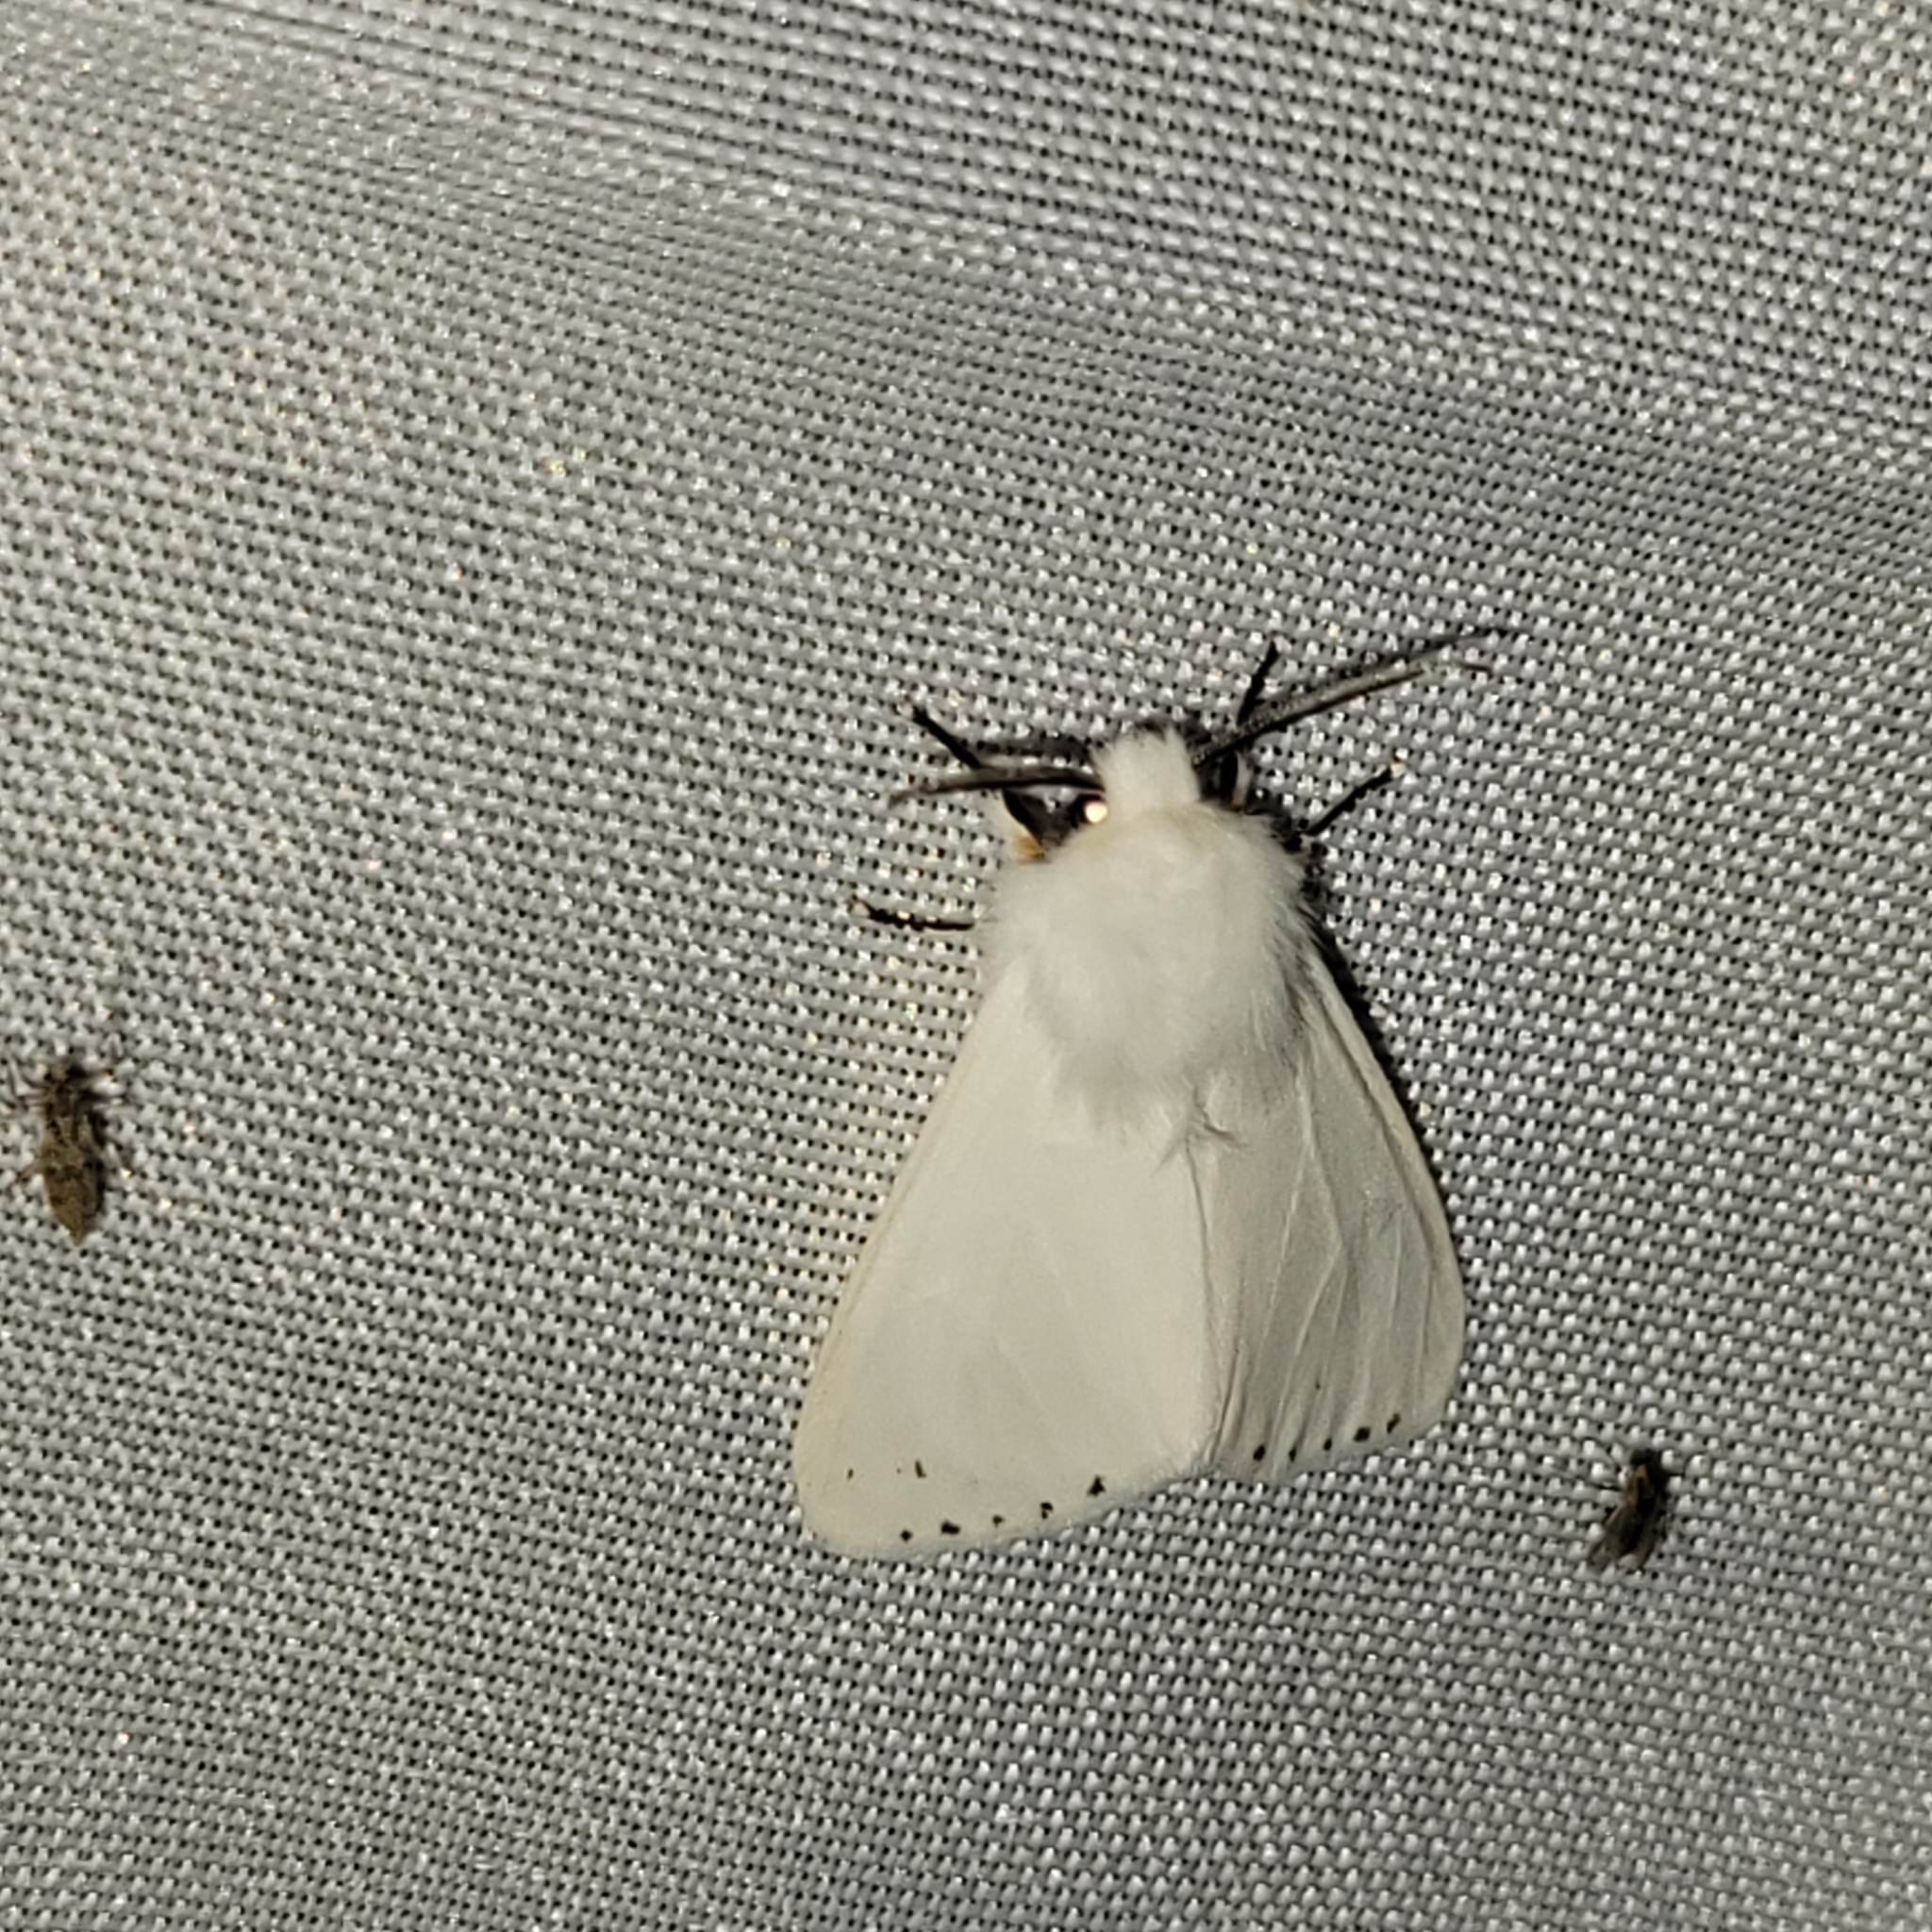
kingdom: Animalia
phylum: Arthropoda
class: Insecta
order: Lepidoptera
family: Erebidae
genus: Hyphantria
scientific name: Hyphantria cunea
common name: American white moth
